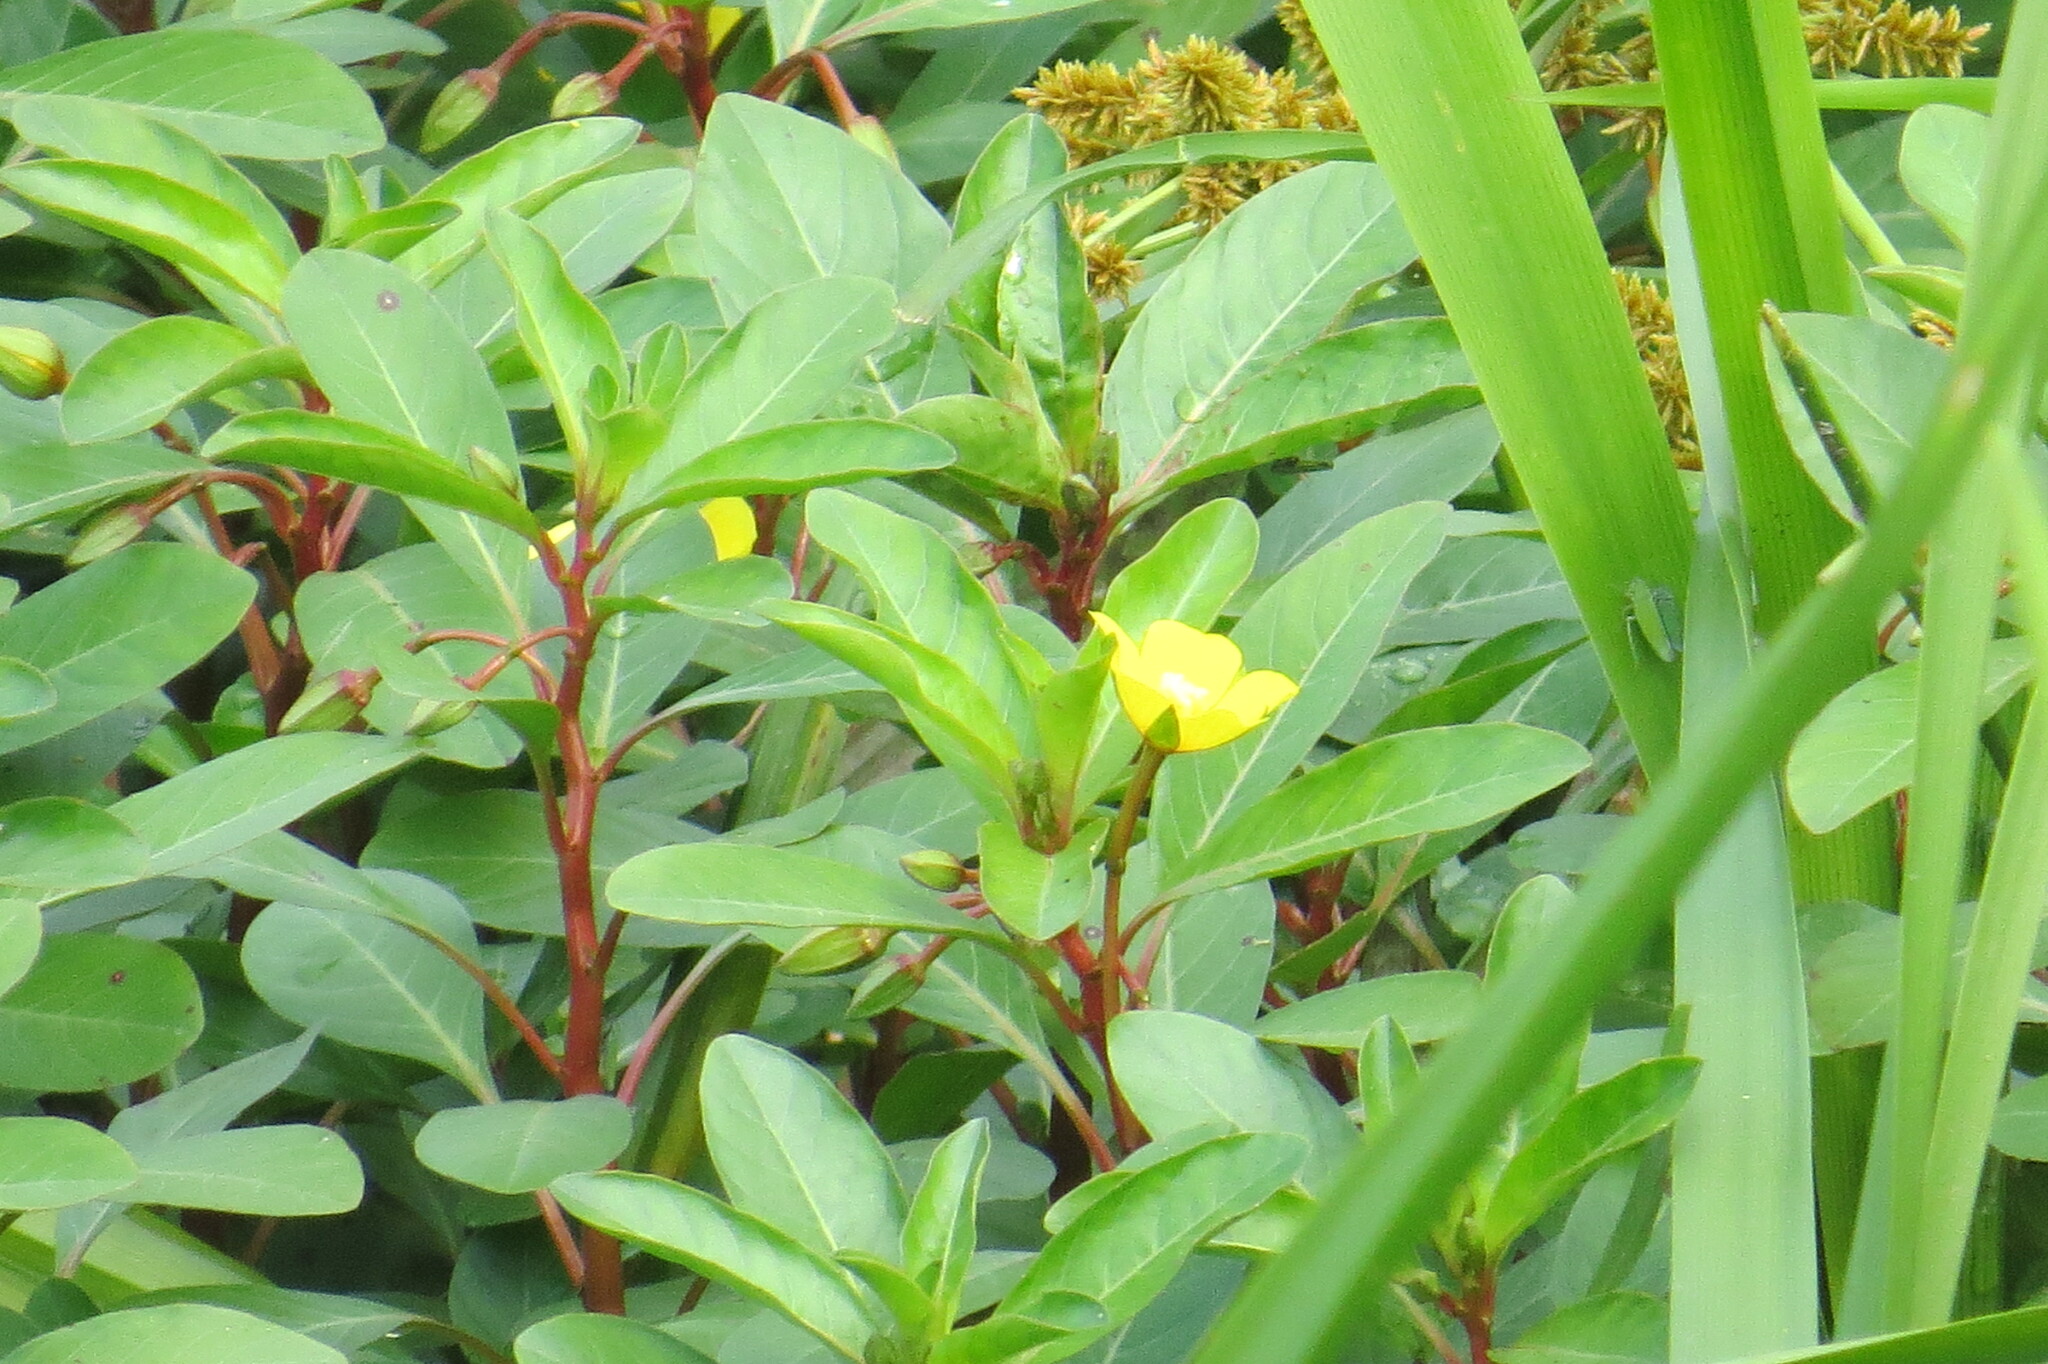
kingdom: Plantae
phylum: Tracheophyta
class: Magnoliopsida
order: Myrtales
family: Onagraceae
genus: Ludwigia
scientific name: Ludwigia peploides
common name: Floating primrose-willow
